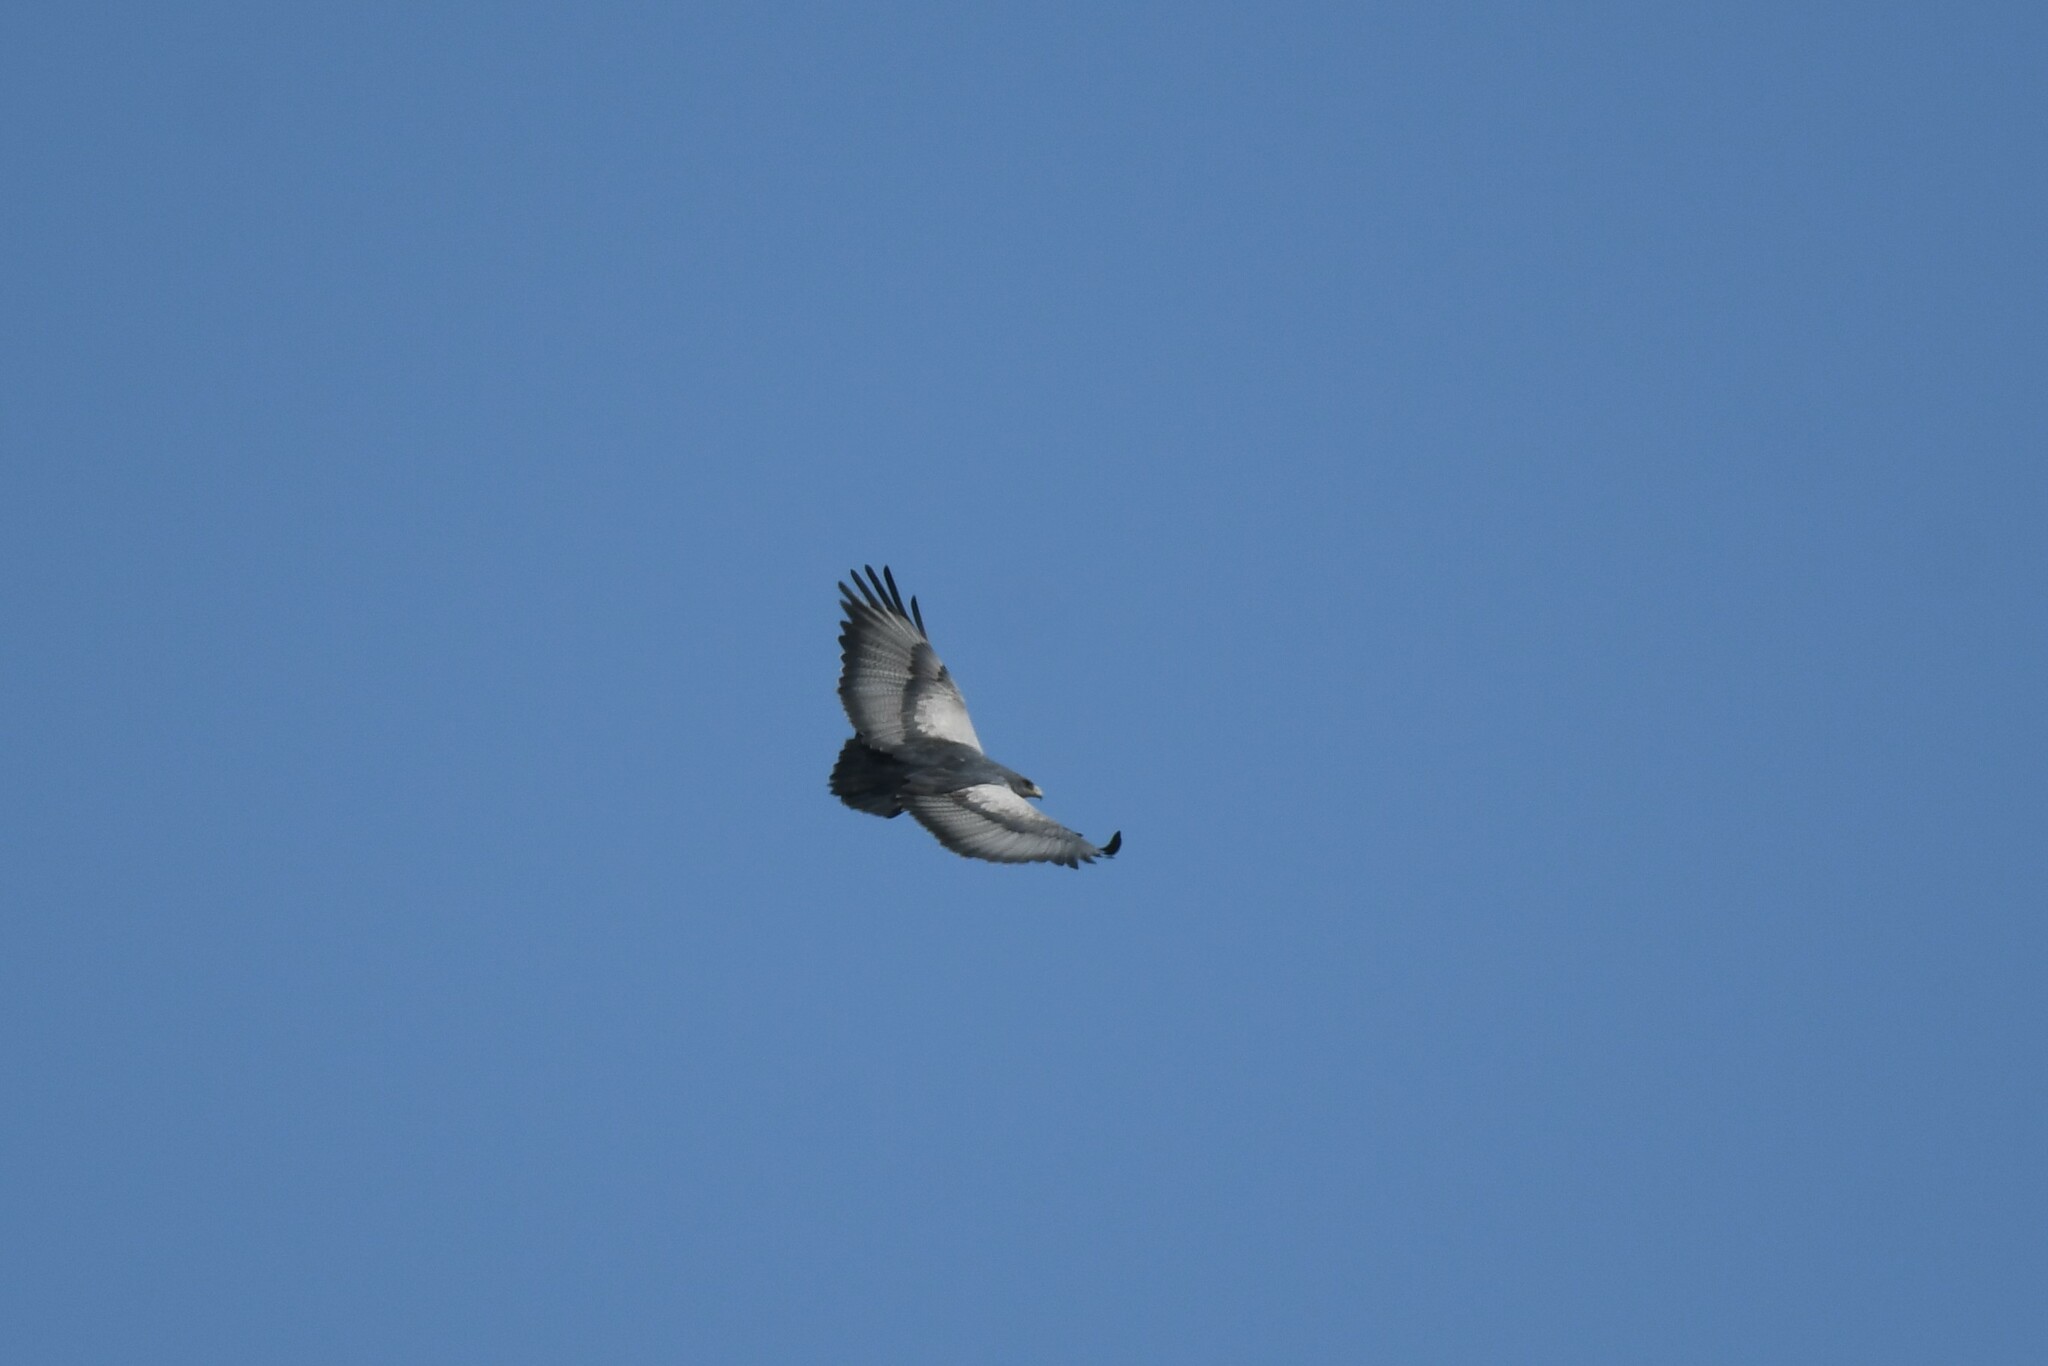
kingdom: Animalia
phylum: Chordata
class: Aves
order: Accipitriformes
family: Accipitridae
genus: Geranoaetus
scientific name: Geranoaetus melanoleucus
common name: Black-chested buzzard-eagle
